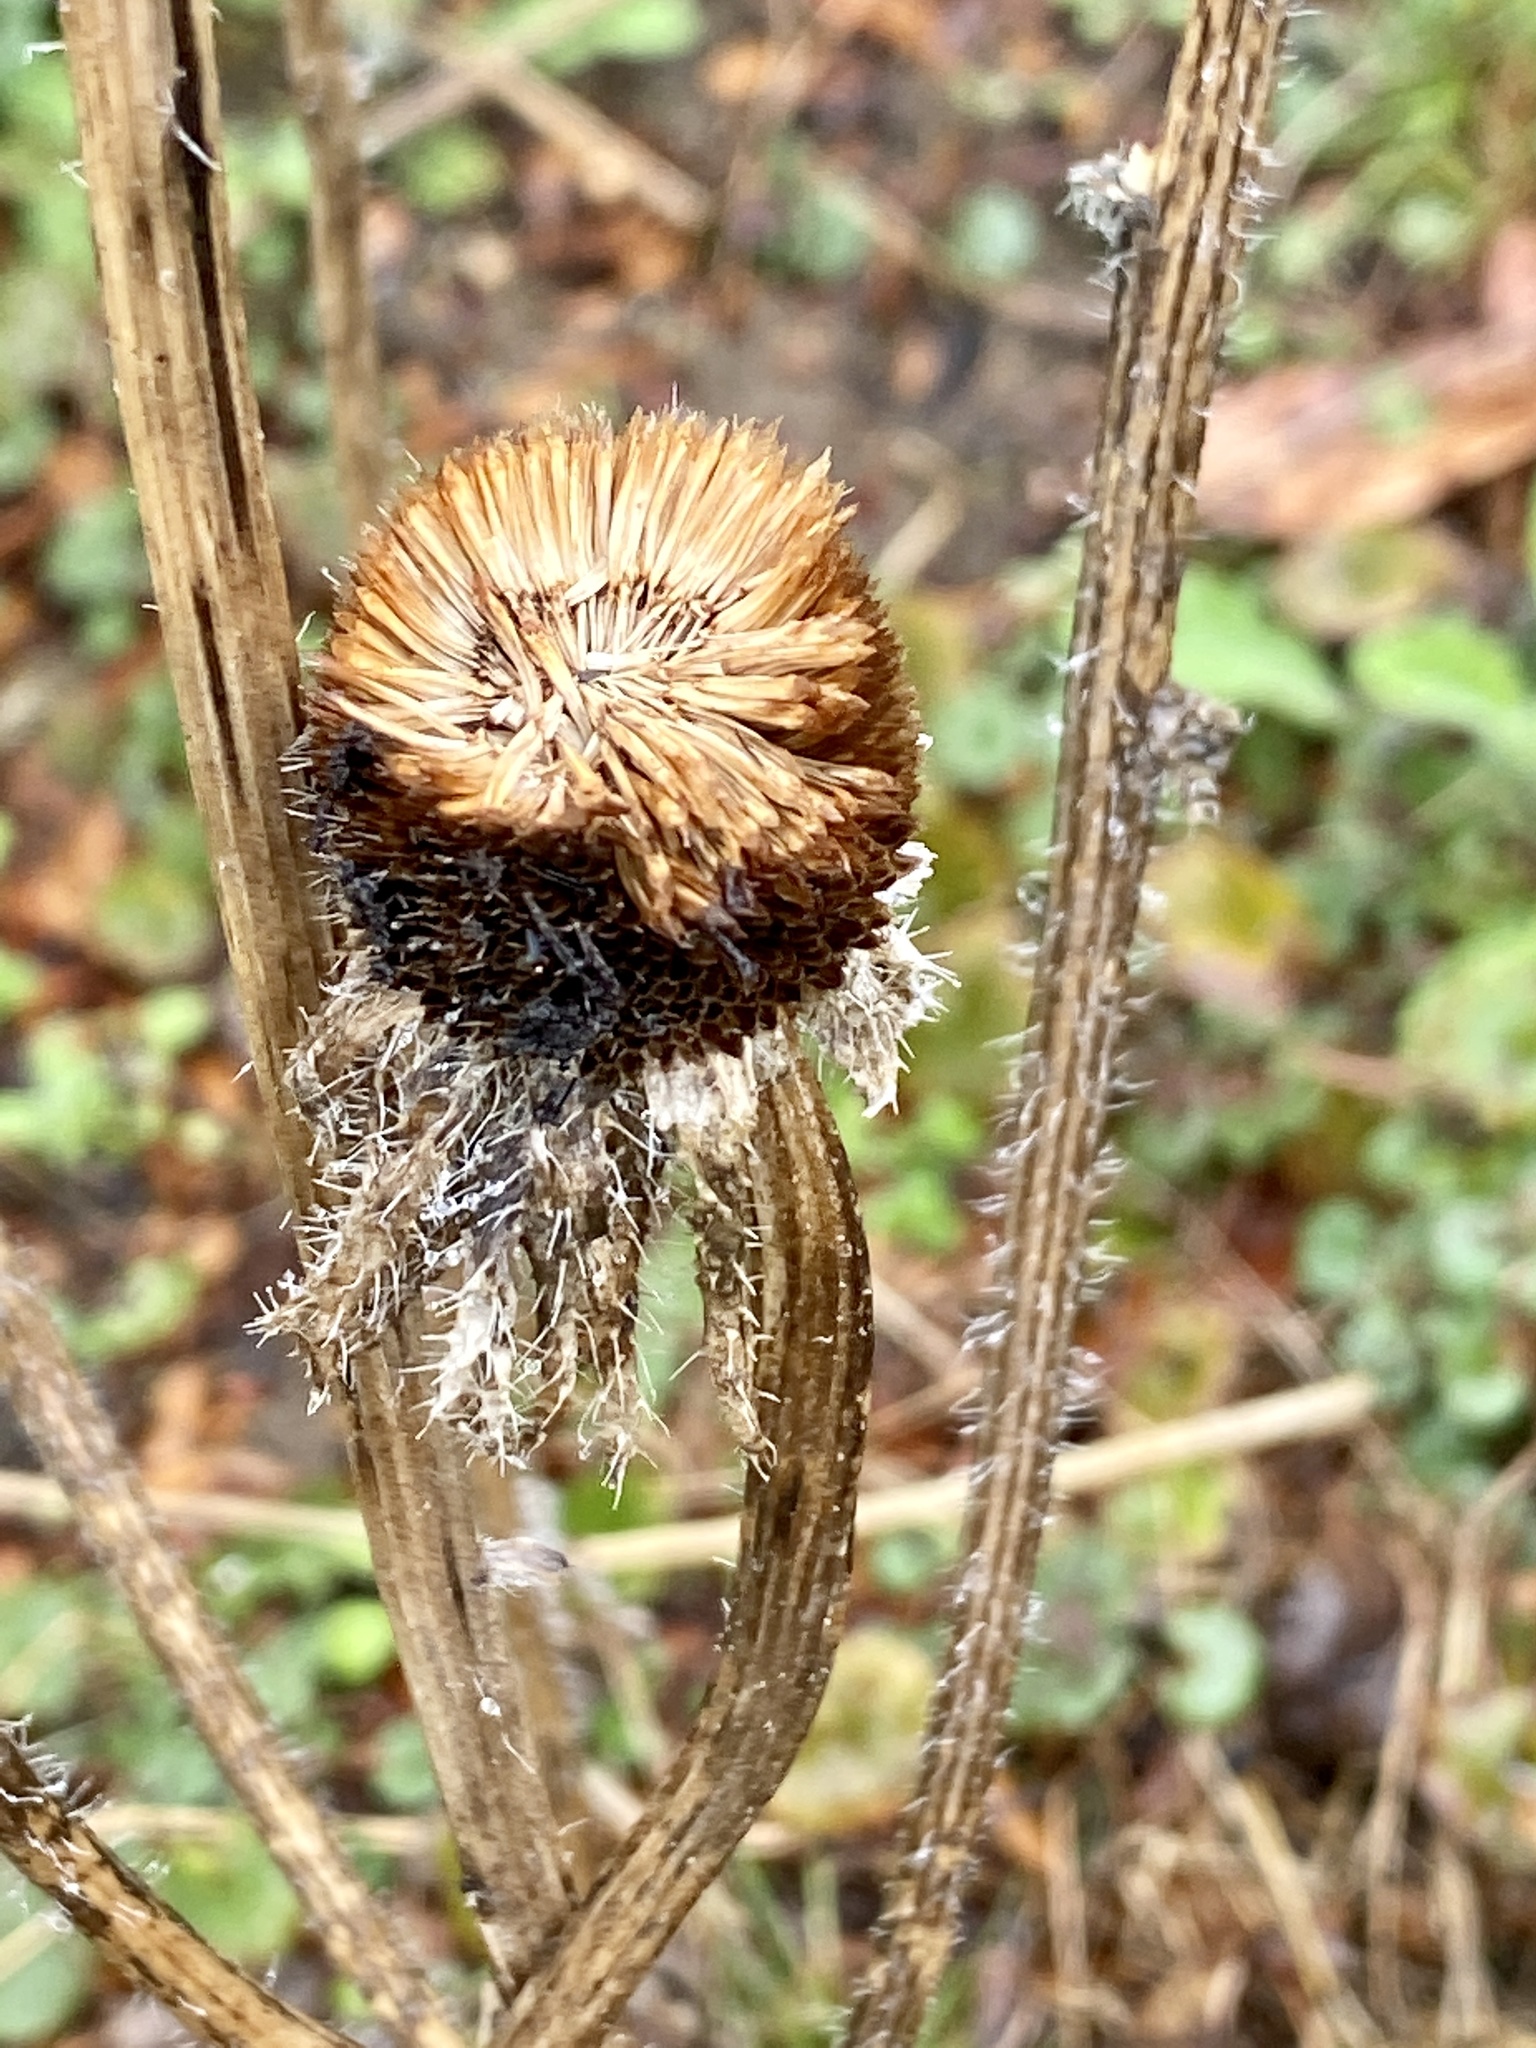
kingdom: Plantae
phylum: Tracheophyta
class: Magnoliopsida
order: Asterales
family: Asteraceae
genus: Rudbeckia
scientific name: Rudbeckia hirta
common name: Black-eyed-susan
